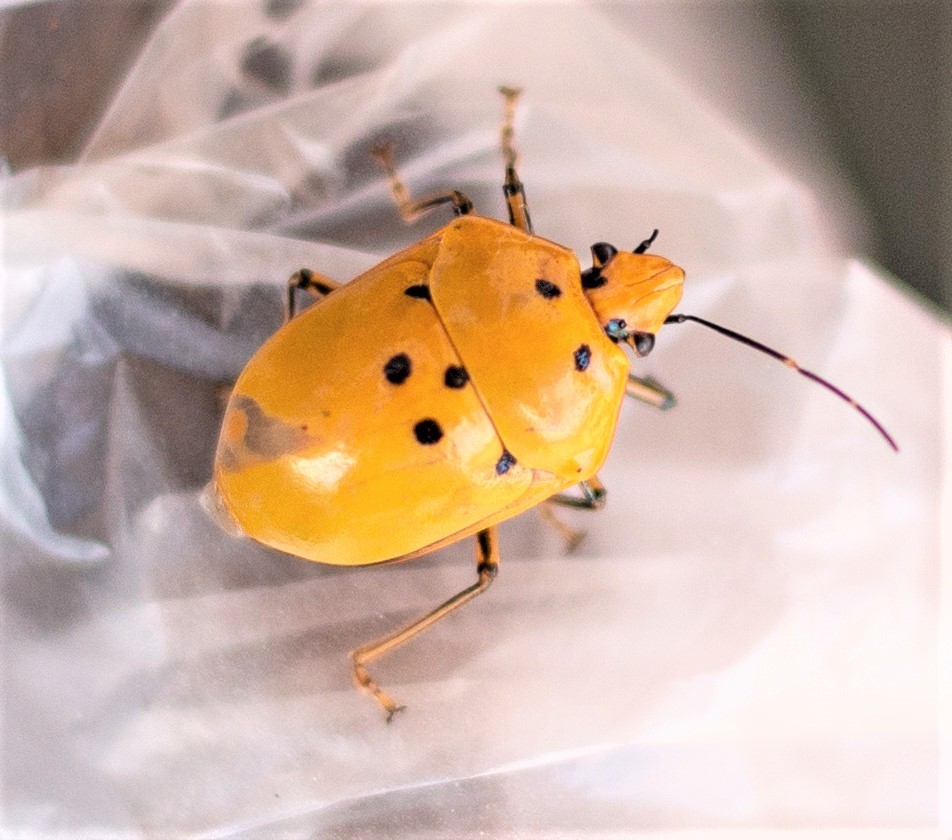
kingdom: Animalia
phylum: Arthropoda
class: Insecta
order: Hemiptera
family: Scutelleridae
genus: Augocoris
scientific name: Augocoris gomesii
